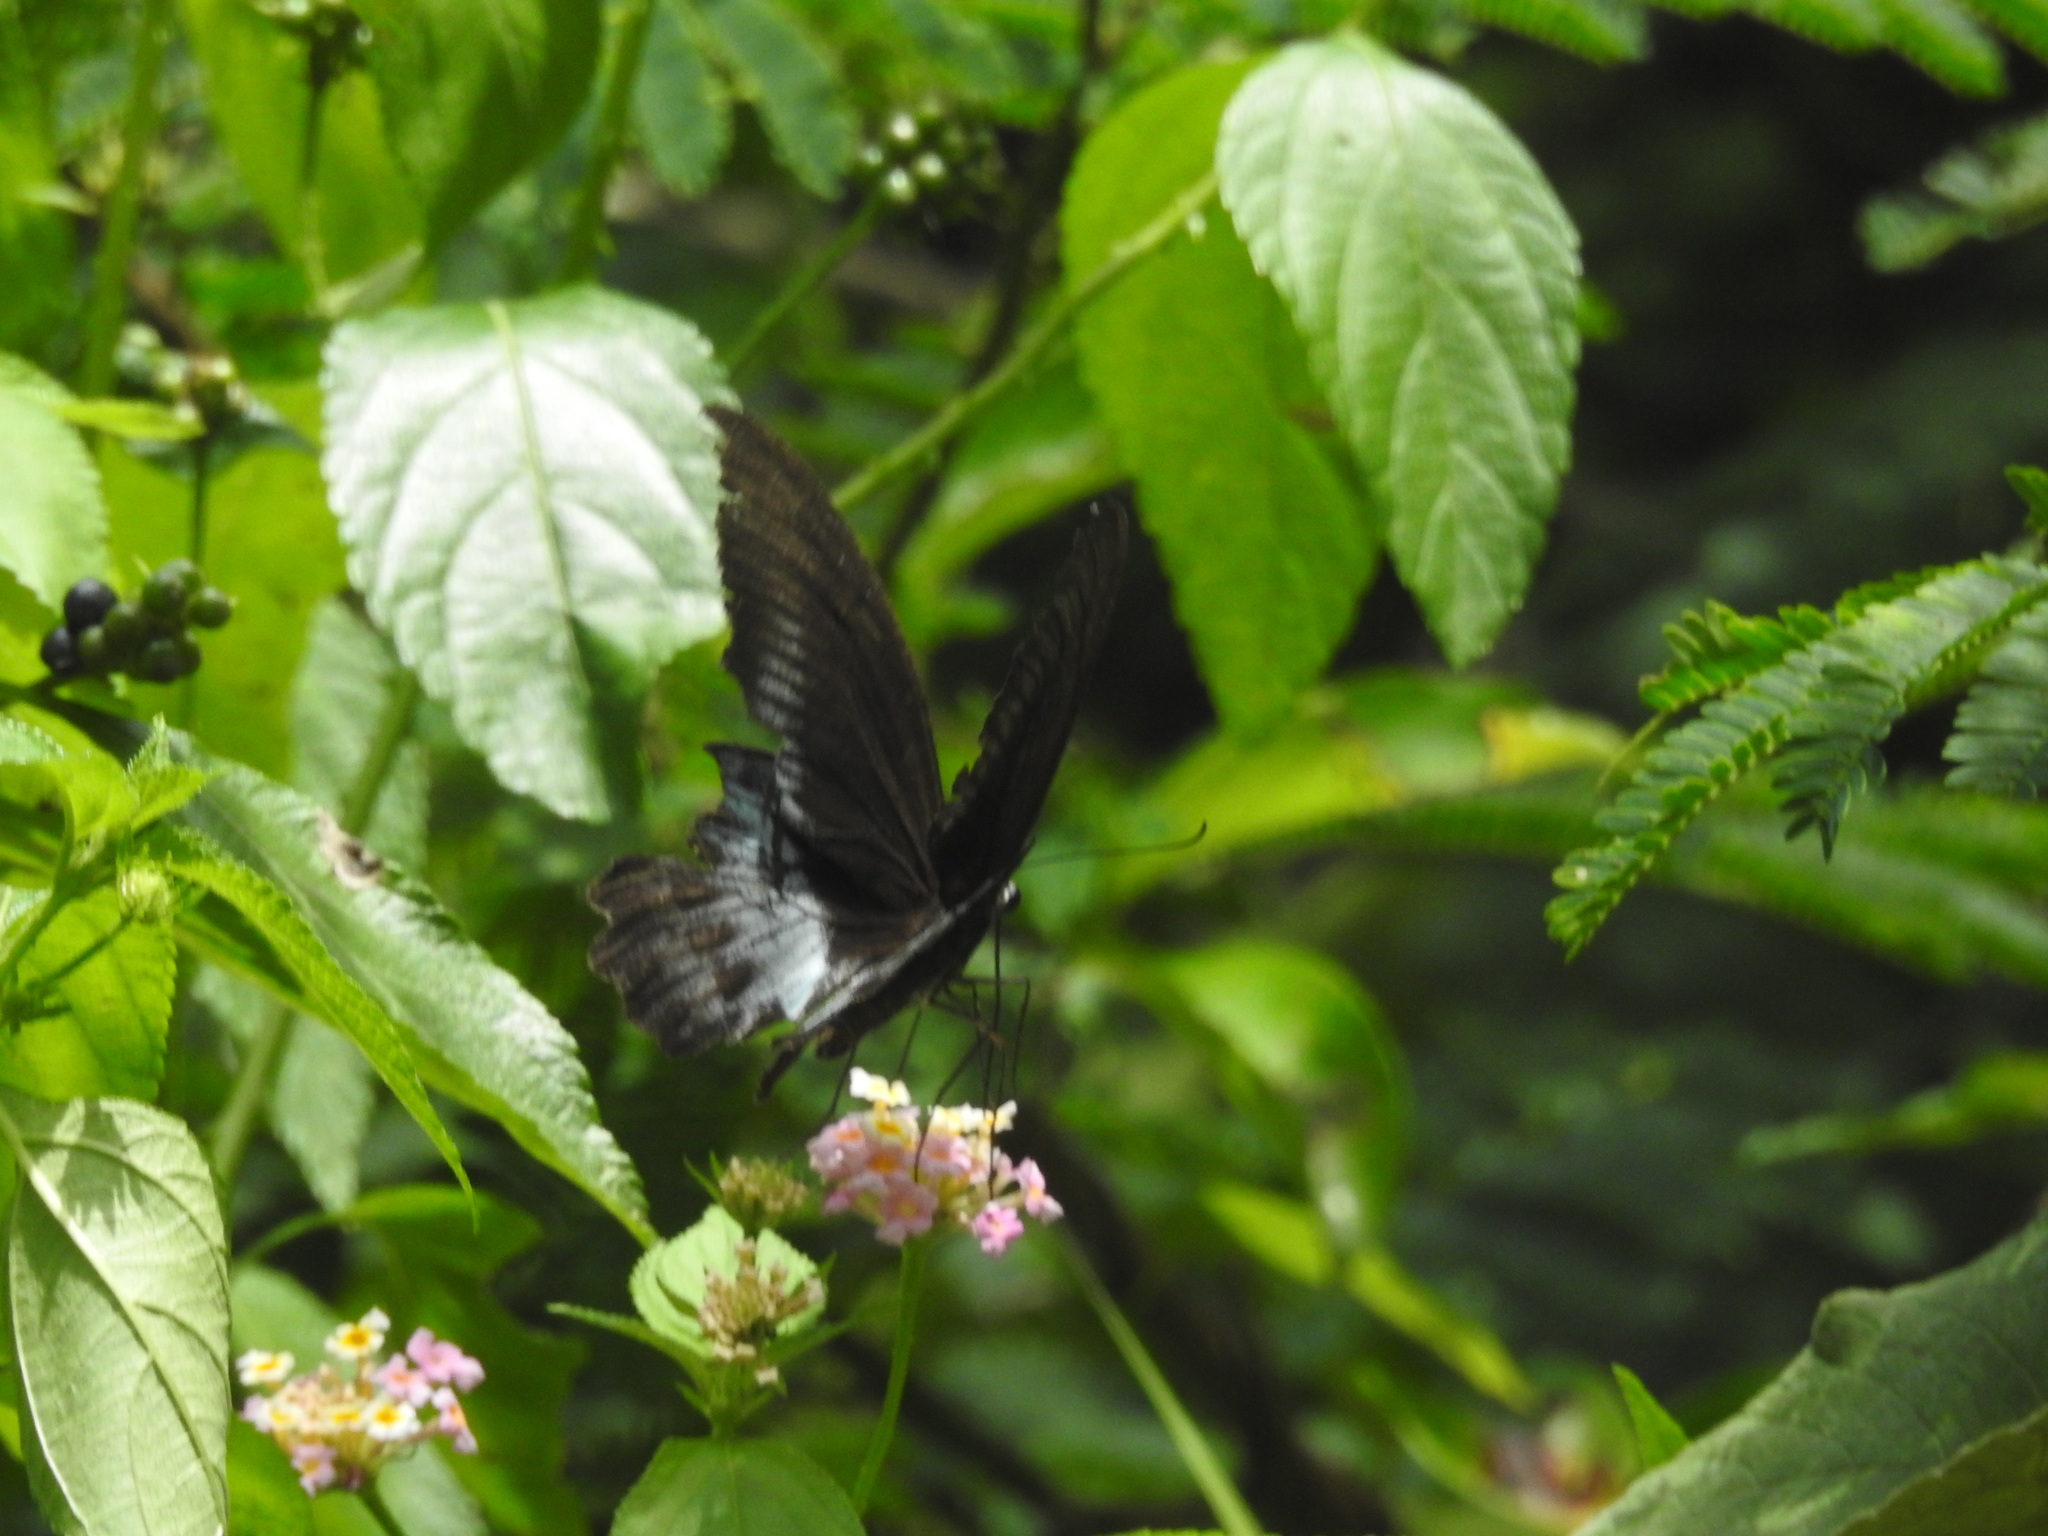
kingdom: Animalia
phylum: Arthropoda
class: Insecta
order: Lepidoptera
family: Papilionidae
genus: Papilio
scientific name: Papilio memnon
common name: Great mormon
